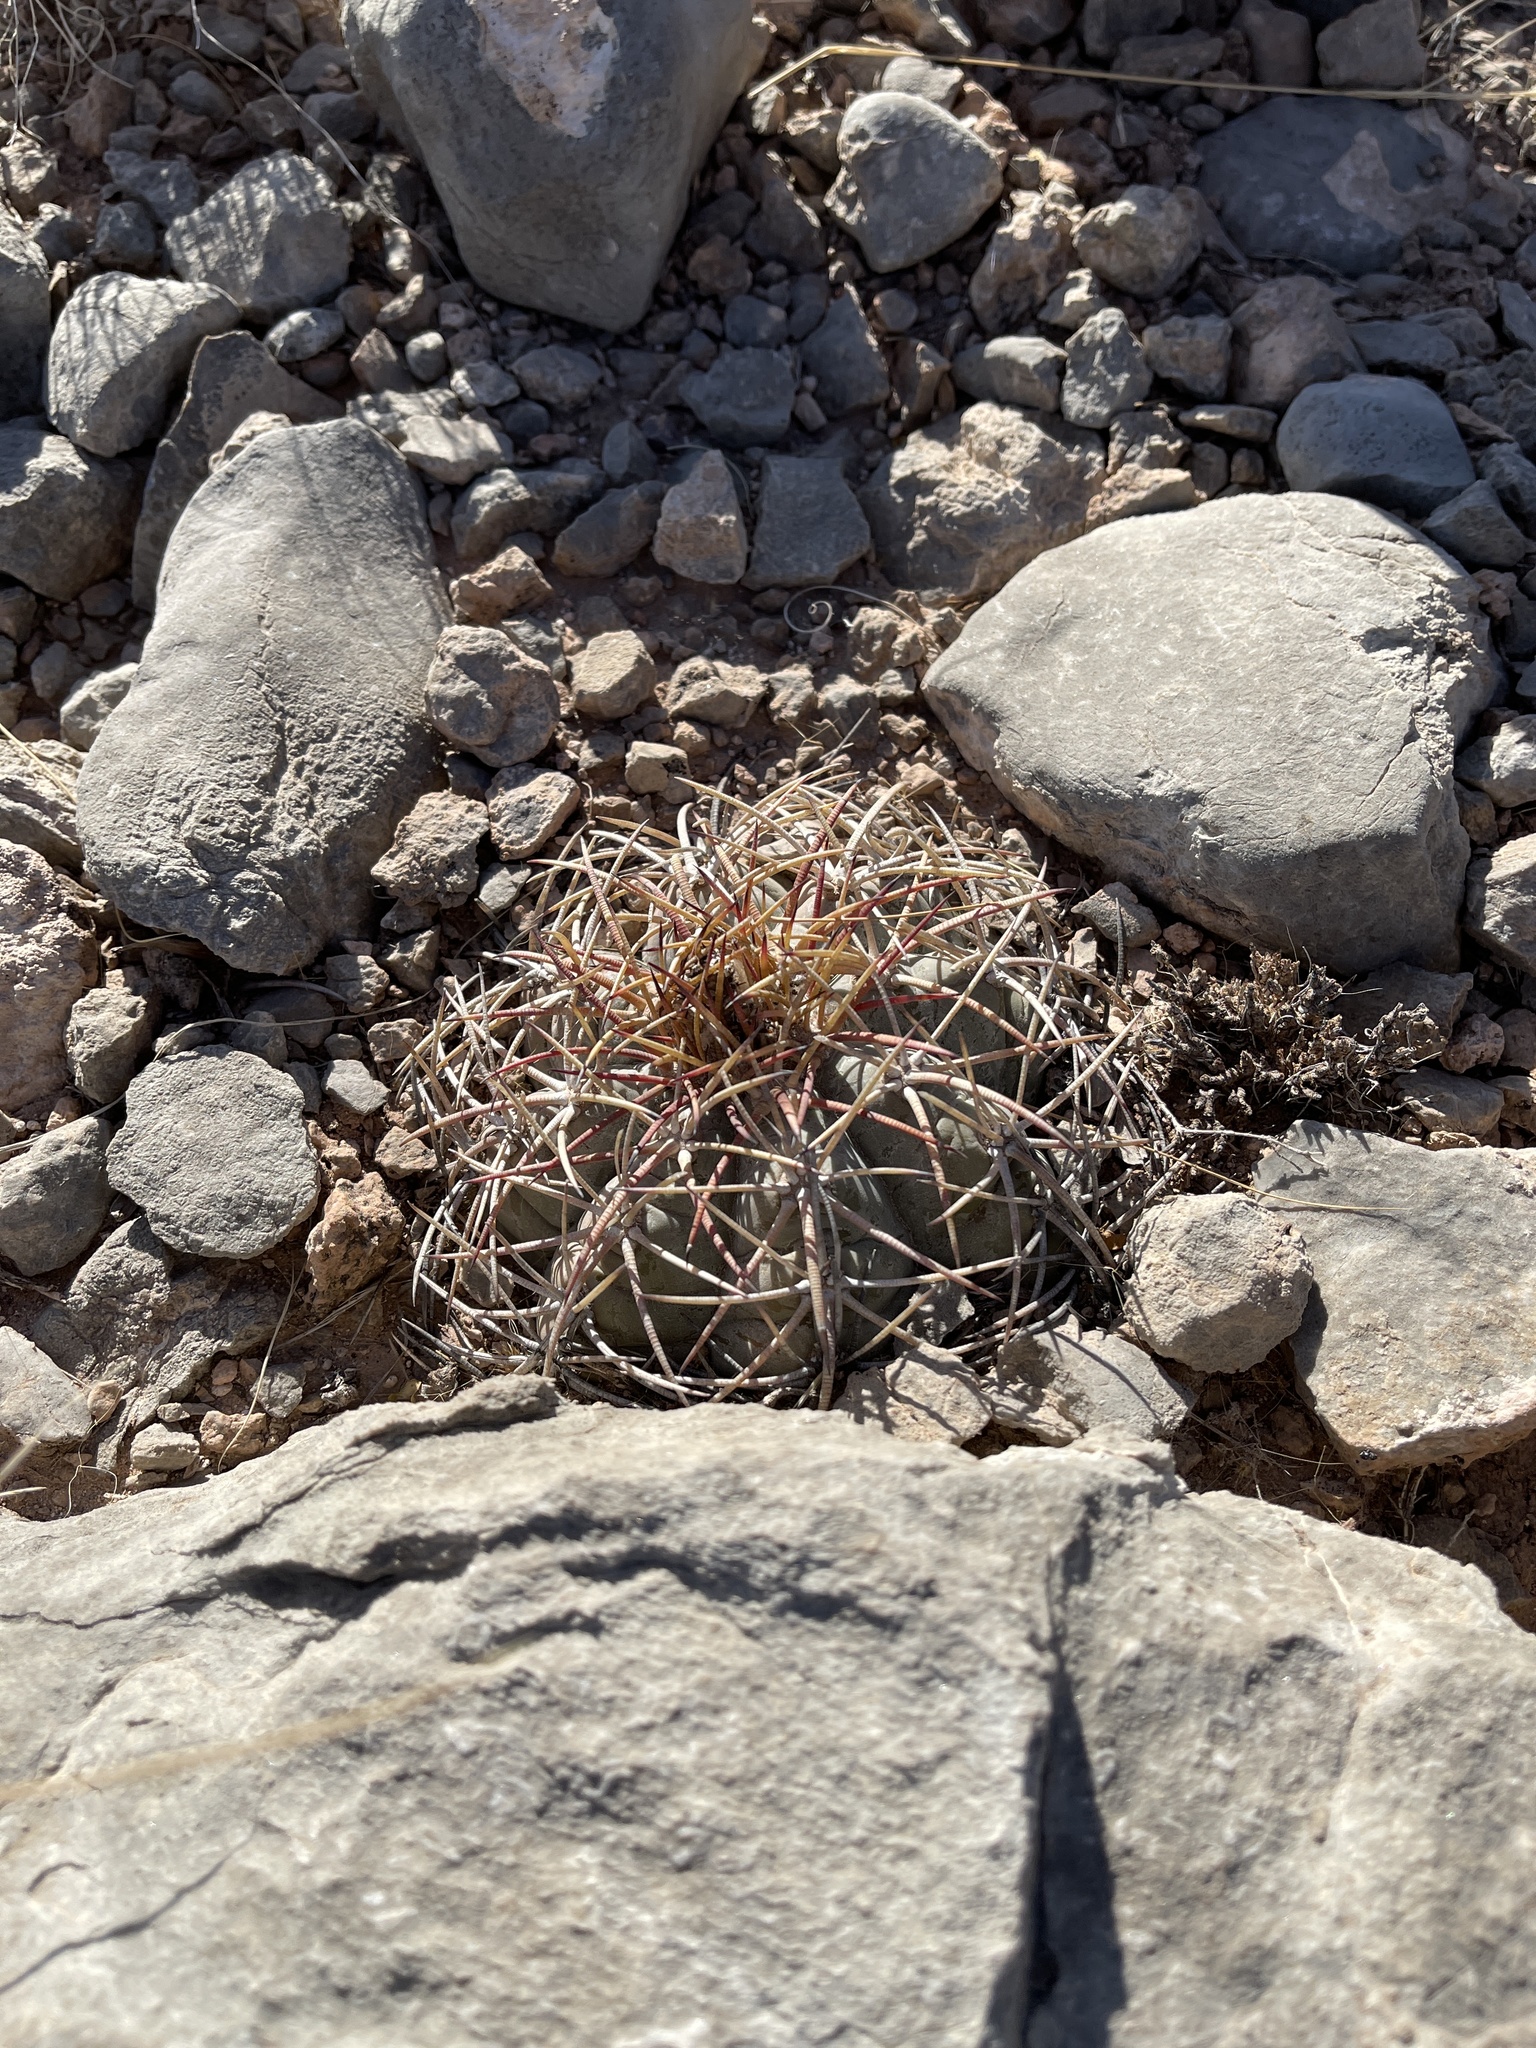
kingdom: Plantae
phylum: Tracheophyta
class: Magnoliopsida
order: Caryophyllales
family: Cactaceae
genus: Echinocactus
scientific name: Echinocactus horizonthalonius
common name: Devilshead
